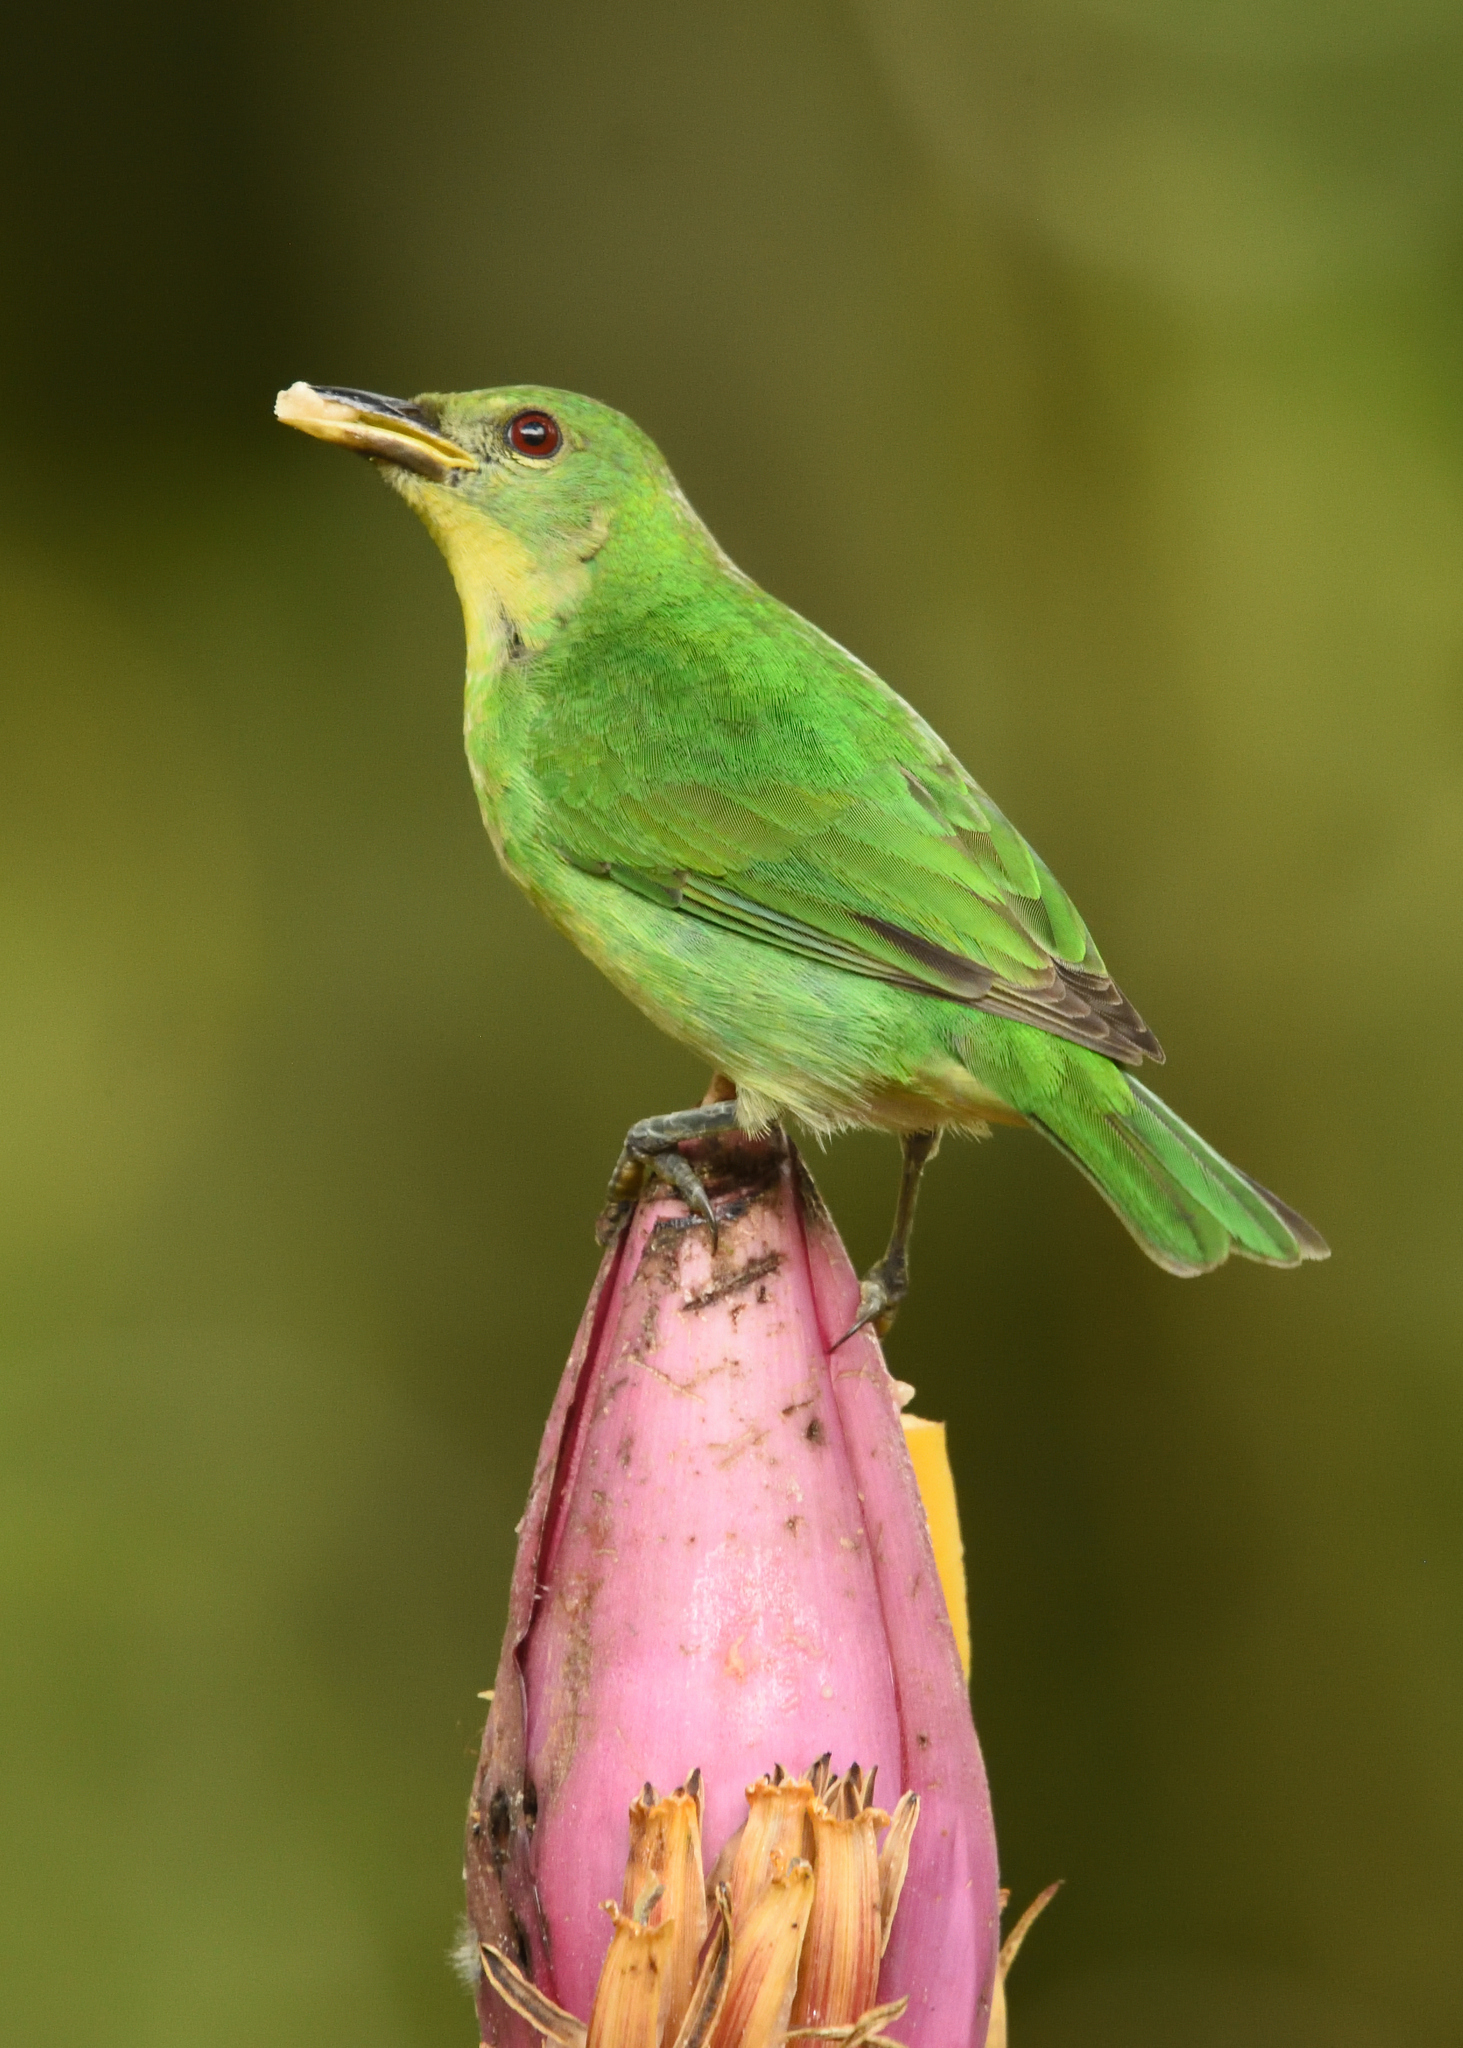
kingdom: Animalia
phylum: Chordata
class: Aves
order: Passeriformes
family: Thraupidae
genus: Chlorophanes
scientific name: Chlorophanes spiza
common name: Green honeycreeper
